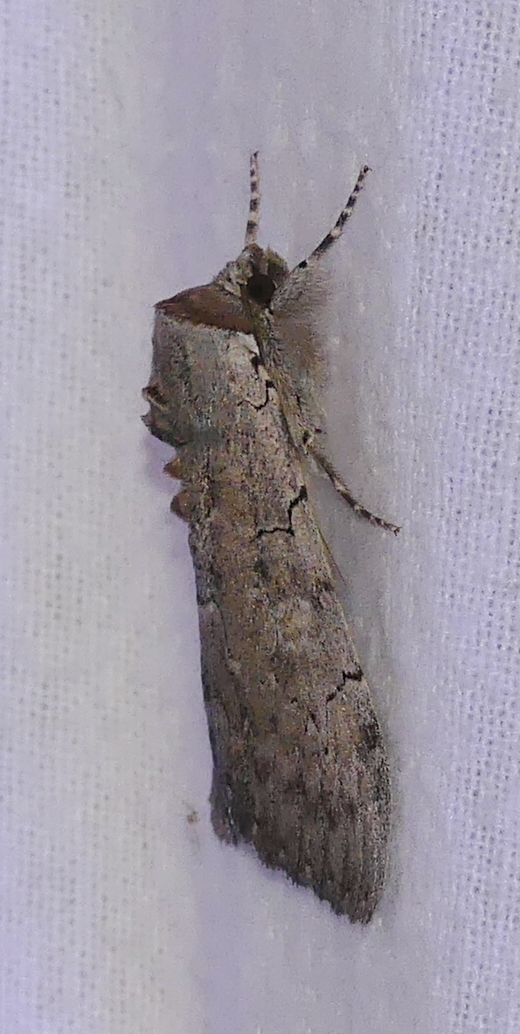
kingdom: Animalia
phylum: Arthropoda
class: Insecta
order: Lepidoptera
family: Erebidae
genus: Catocala
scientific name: Catocala concumbens
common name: Pink underwing
